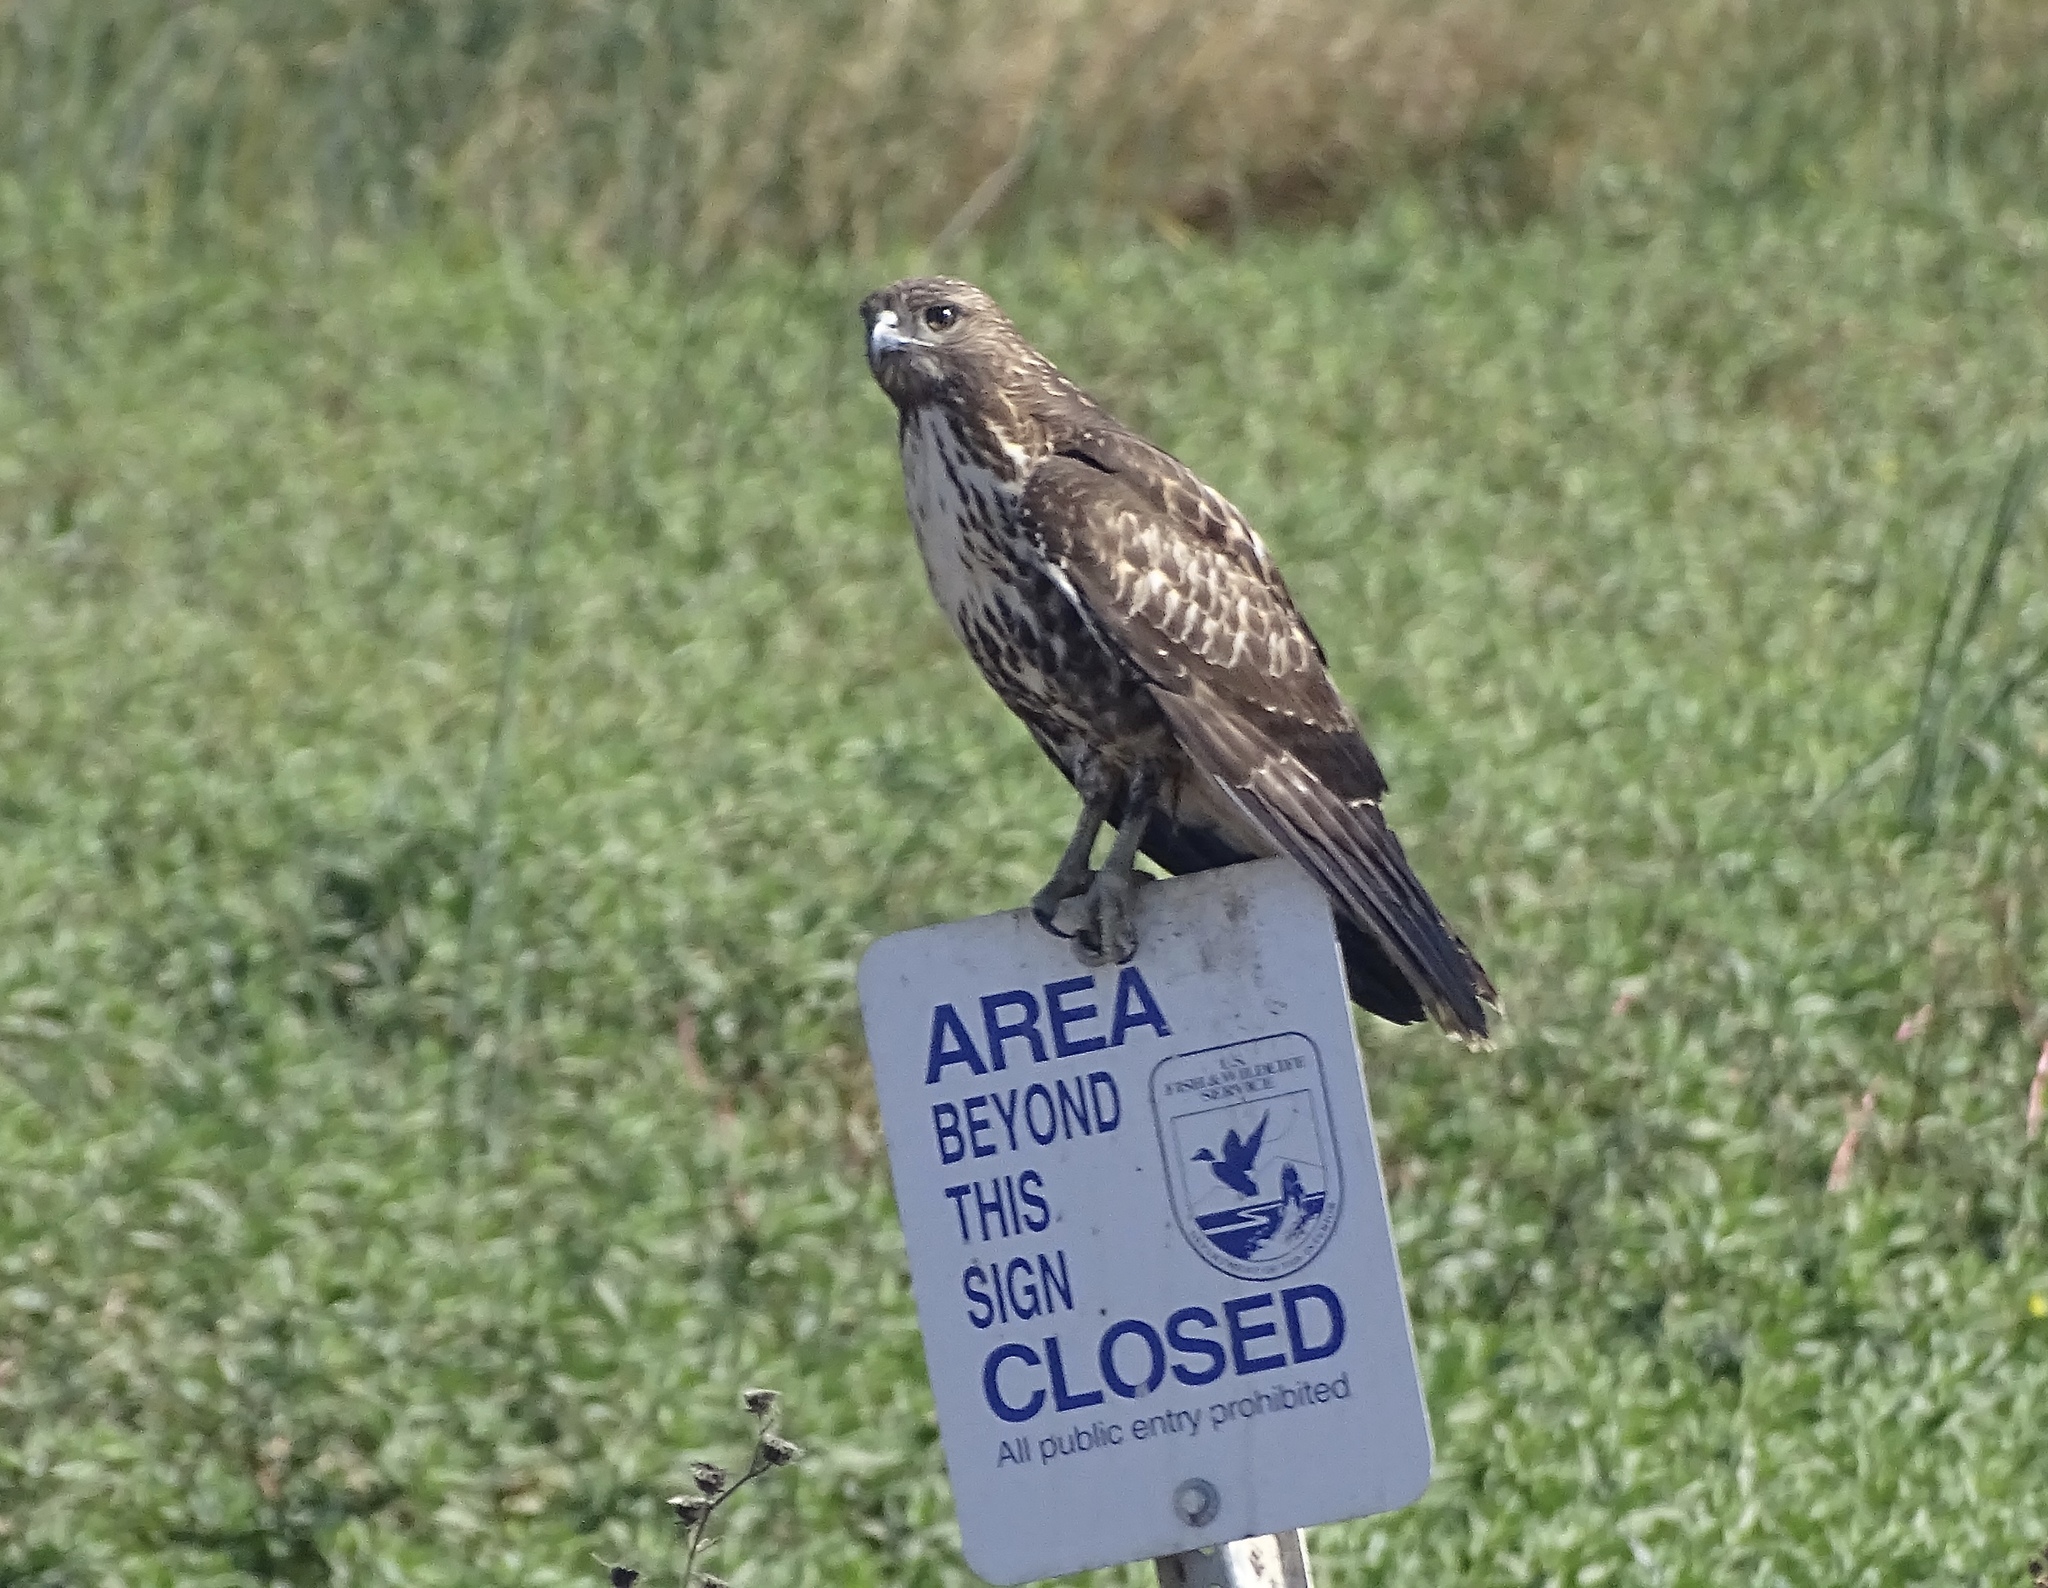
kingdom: Animalia
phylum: Chordata
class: Aves
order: Accipitriformes
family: Accipitridae
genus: Buteo
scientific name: Buteo jamaicensis
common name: Red-tailed hawk
